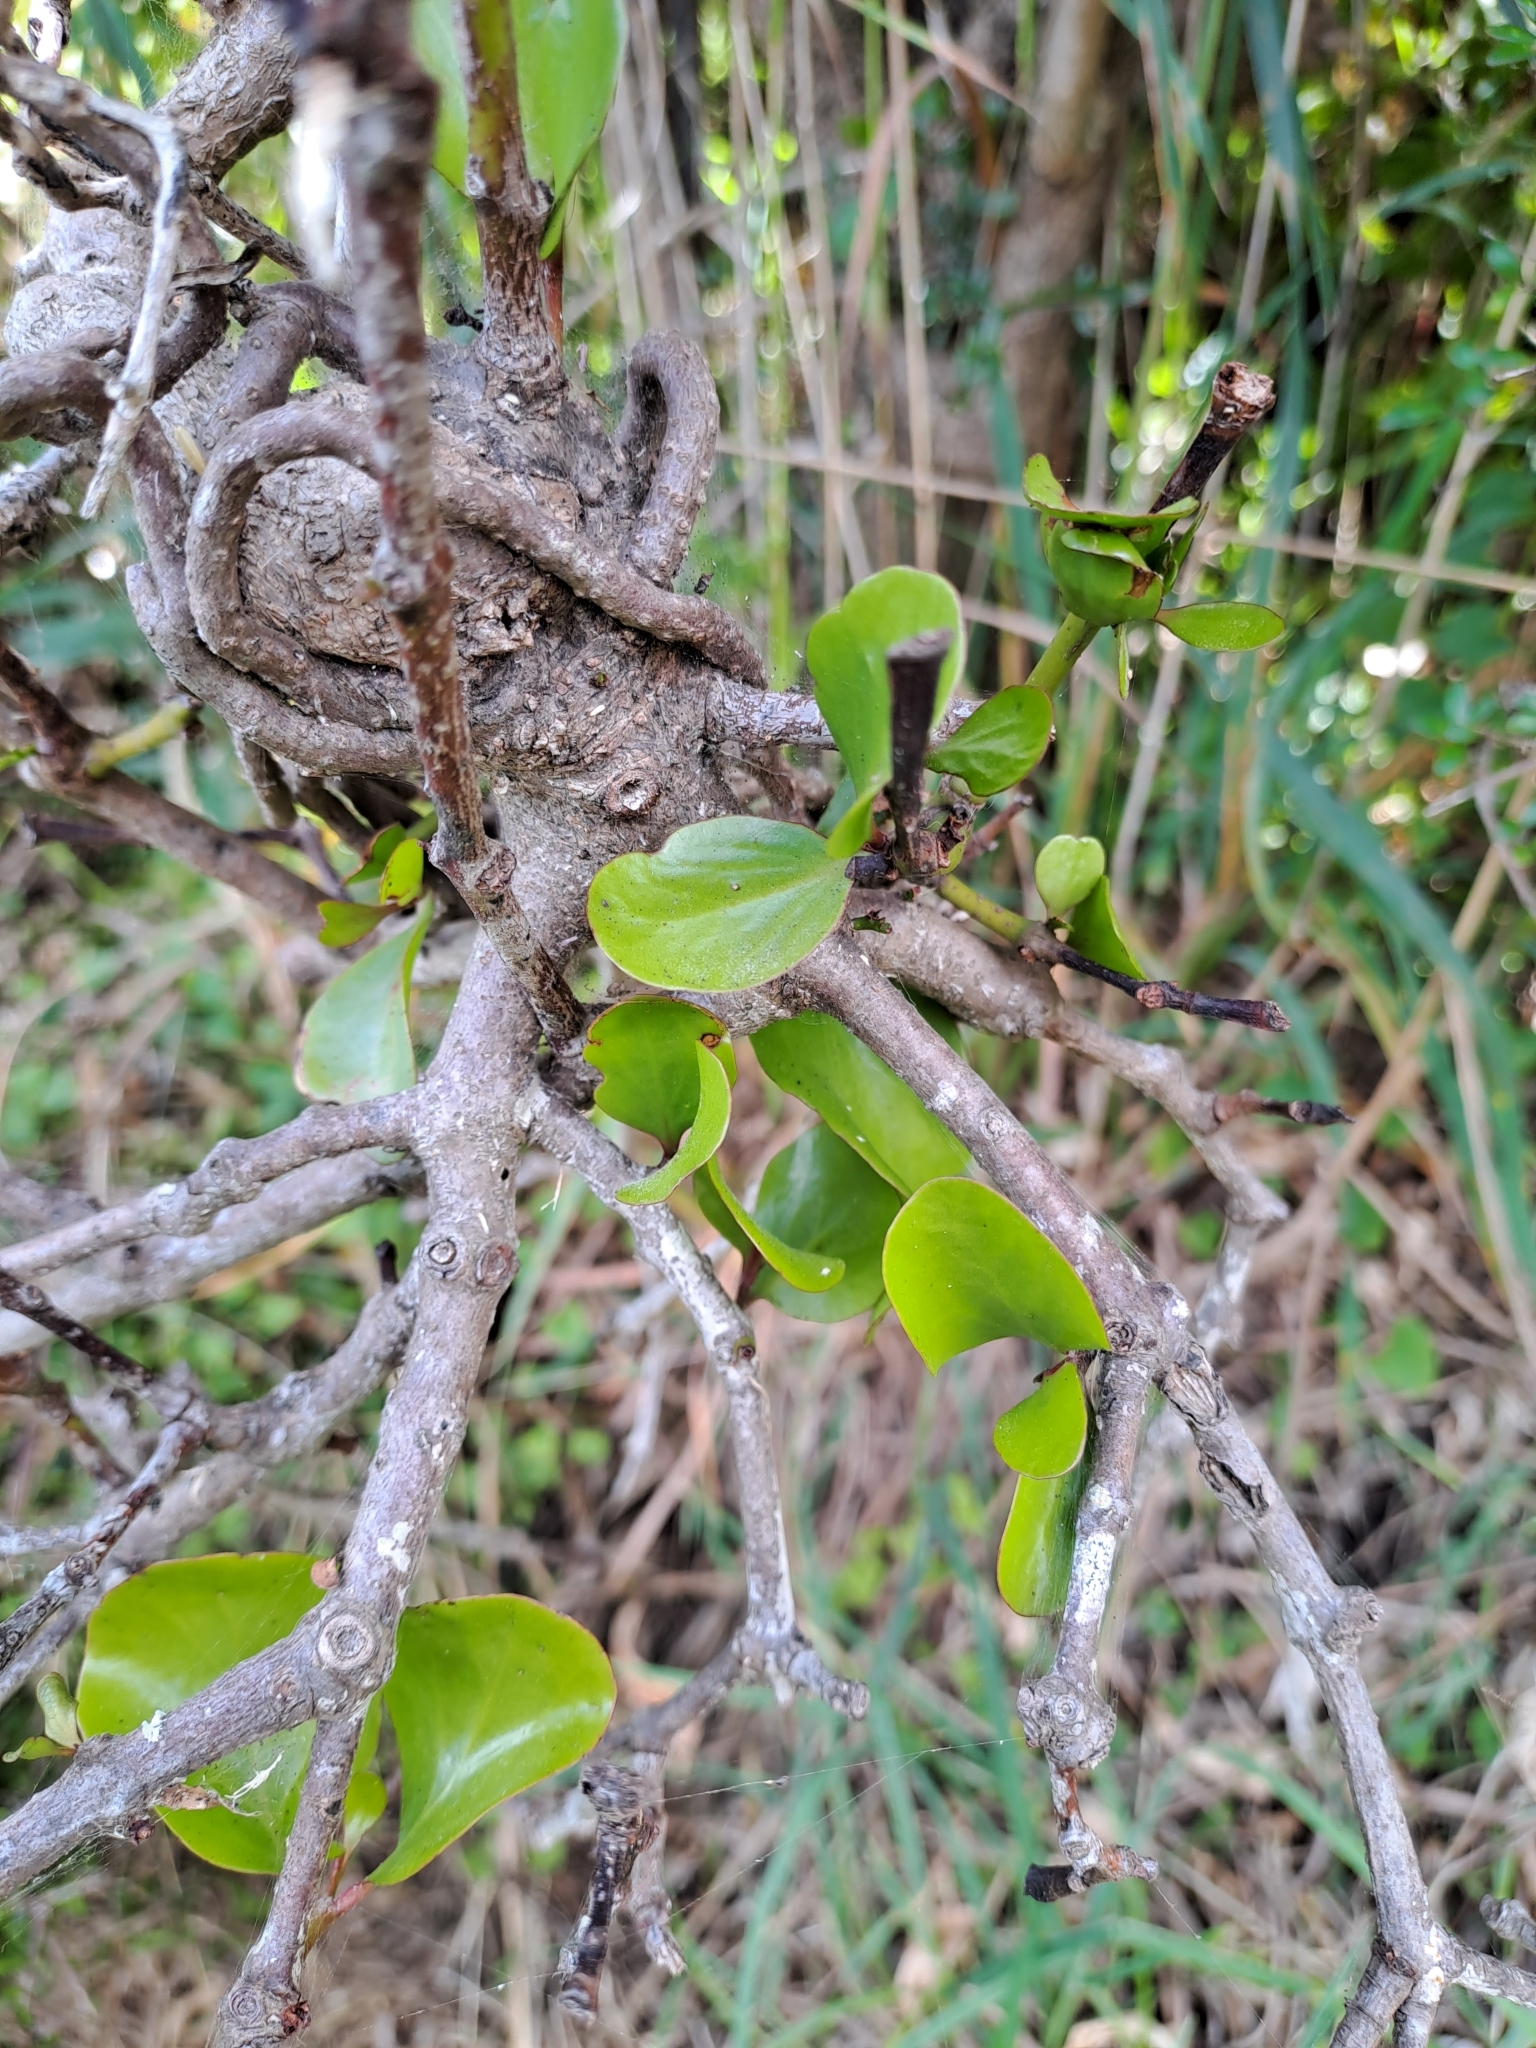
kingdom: Plantae
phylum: Tracheophyta
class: Magnoliopsida
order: Santalales
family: Loranthaceae
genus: Ileostylus
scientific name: Ileostylus micranthus
